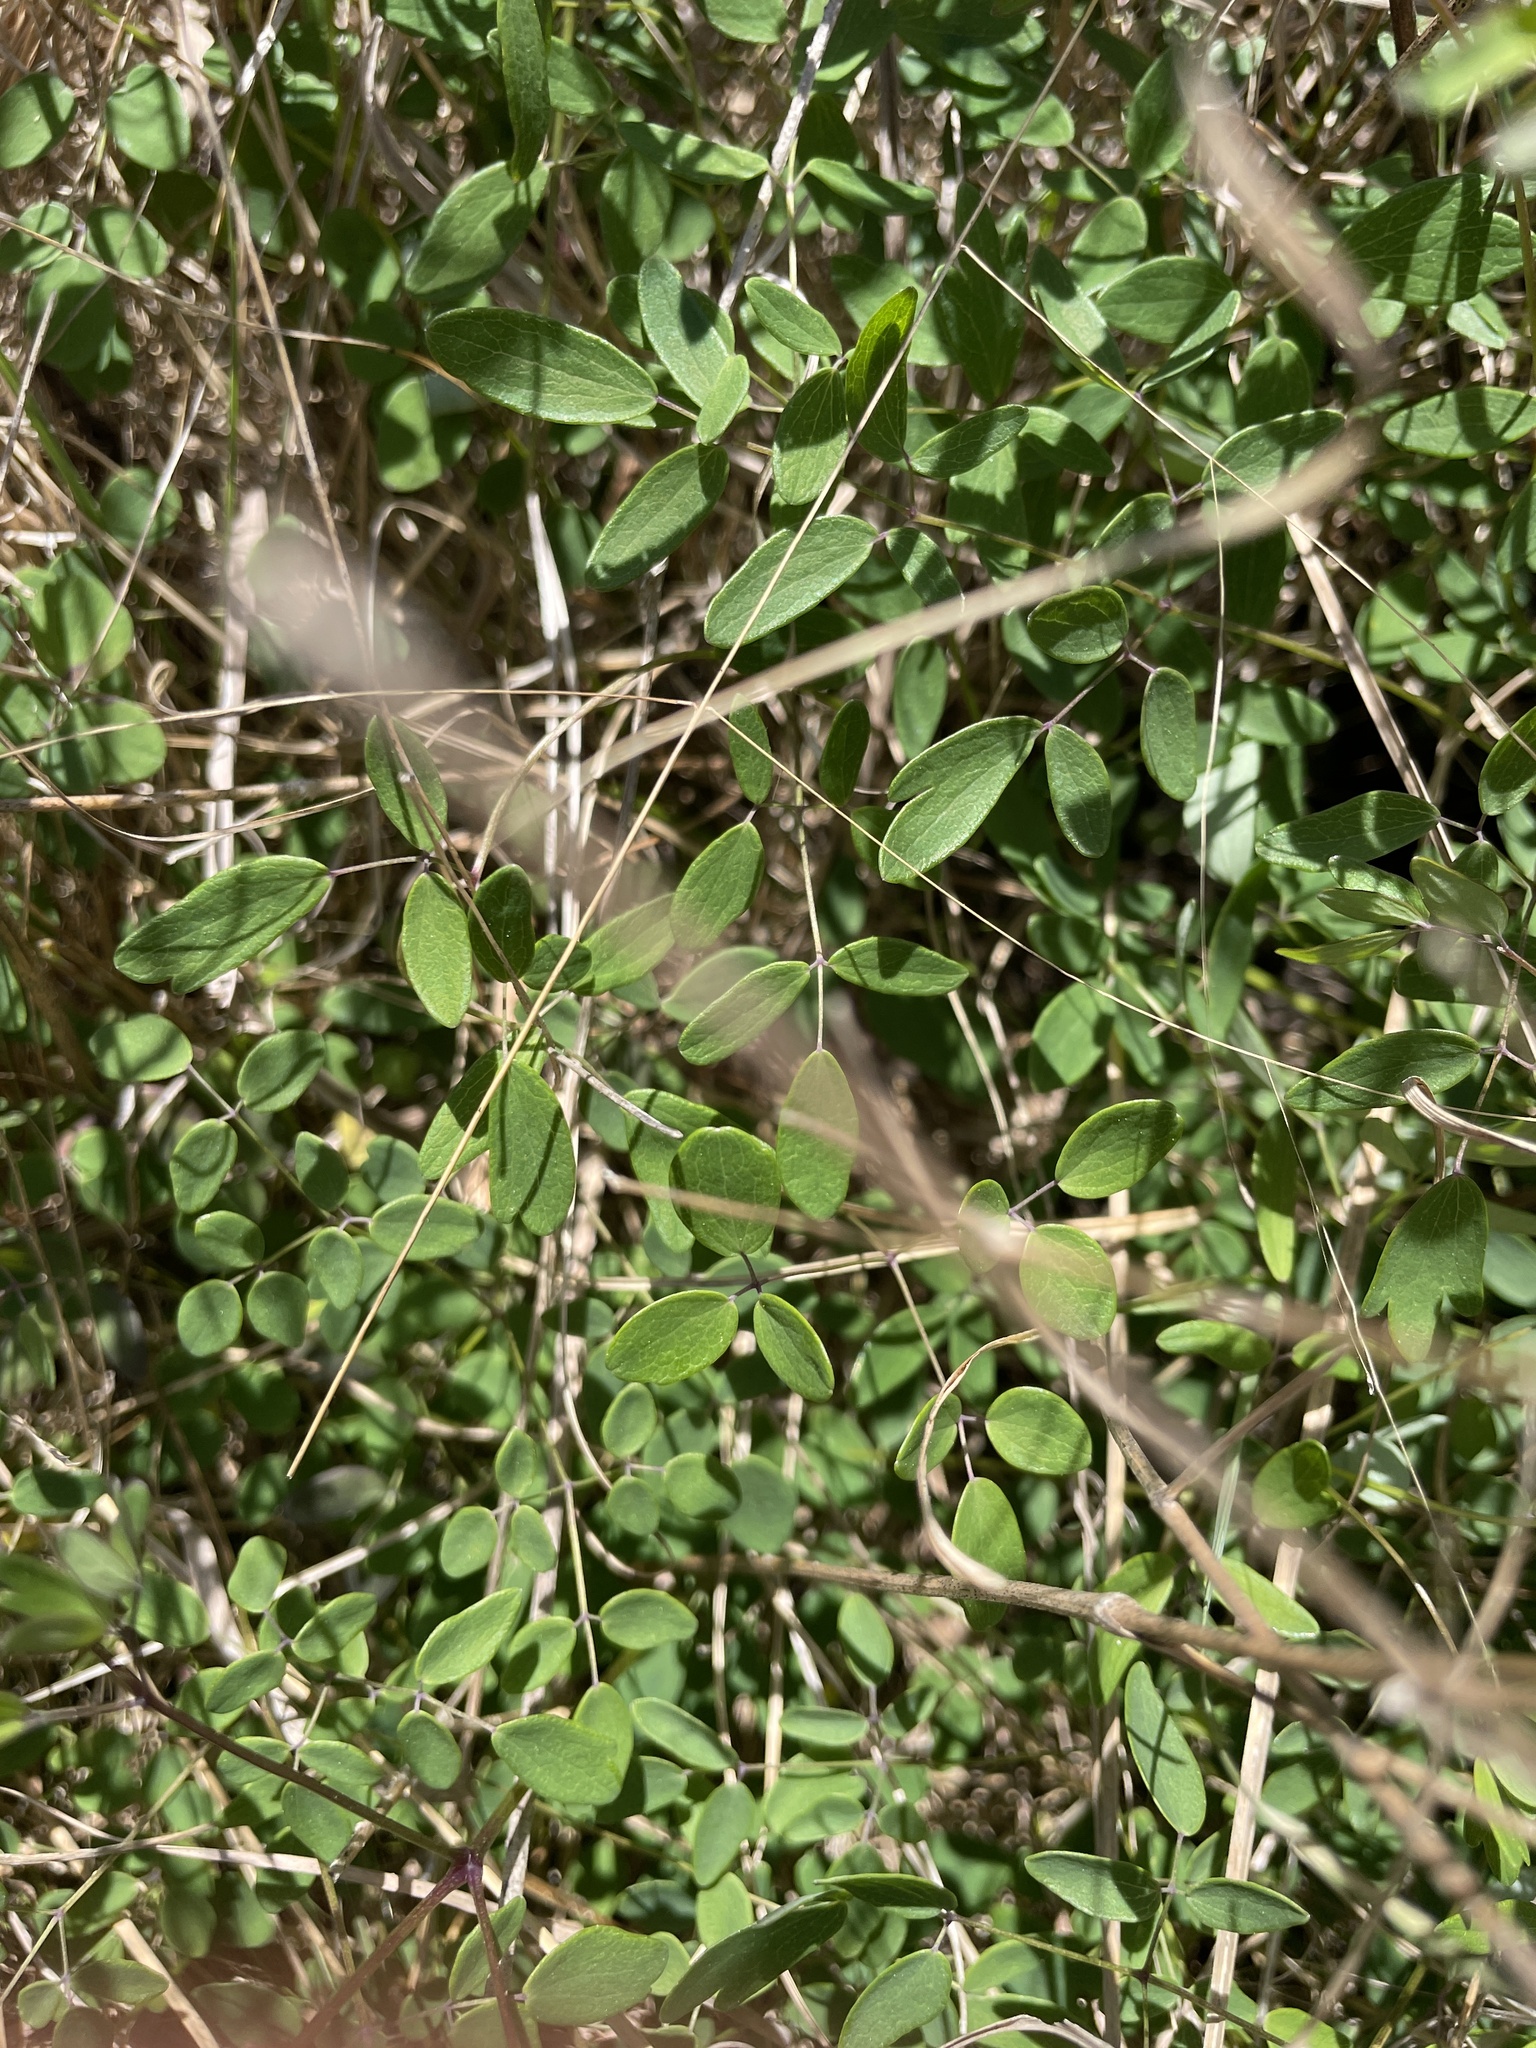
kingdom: Plantae
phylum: Tracheophyta
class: Magnoliopsida
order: Ranunculales
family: Ranunculaceae
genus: Thalictrum
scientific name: Thalictrum cooleyi
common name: Cooley's meadow-rue
